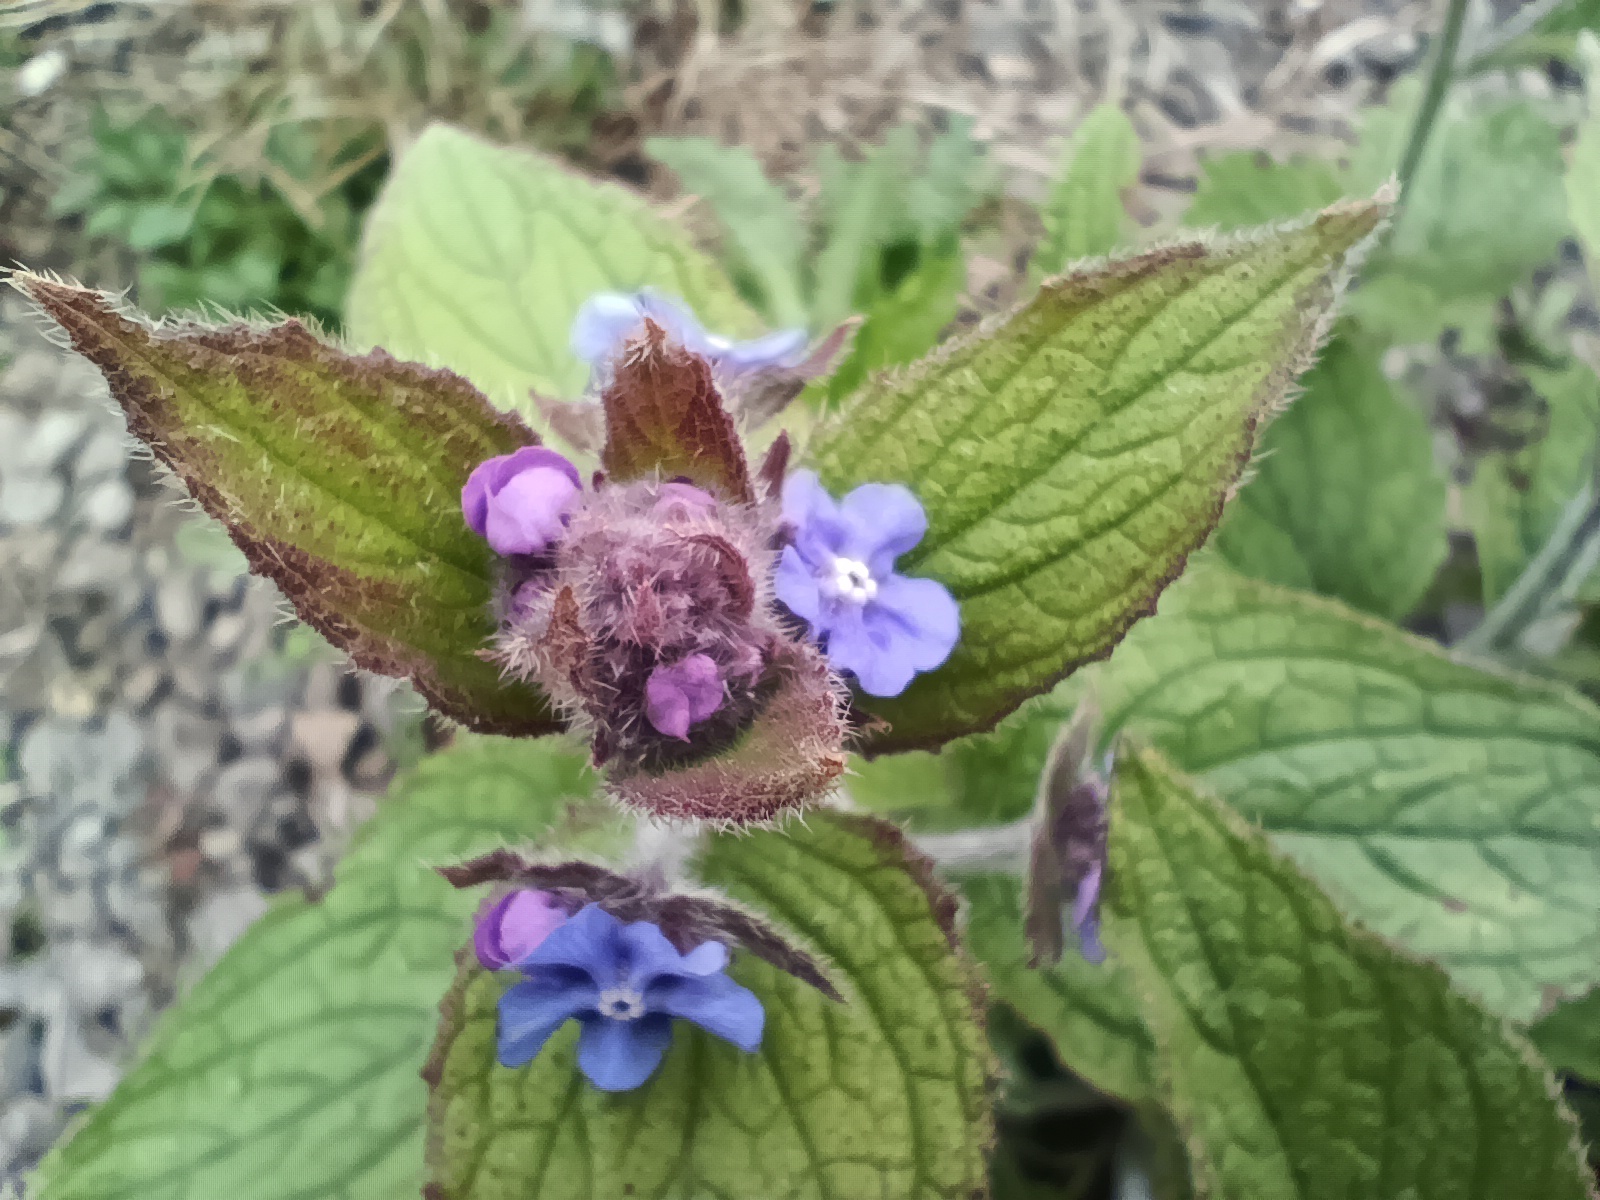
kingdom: Plantae
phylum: Tracheophyta
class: Magnoliopsida
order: Boraginales
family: Boraginaceae
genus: Pentaglottis
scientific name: Pentaglottis sempervirens
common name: Green alkanet
